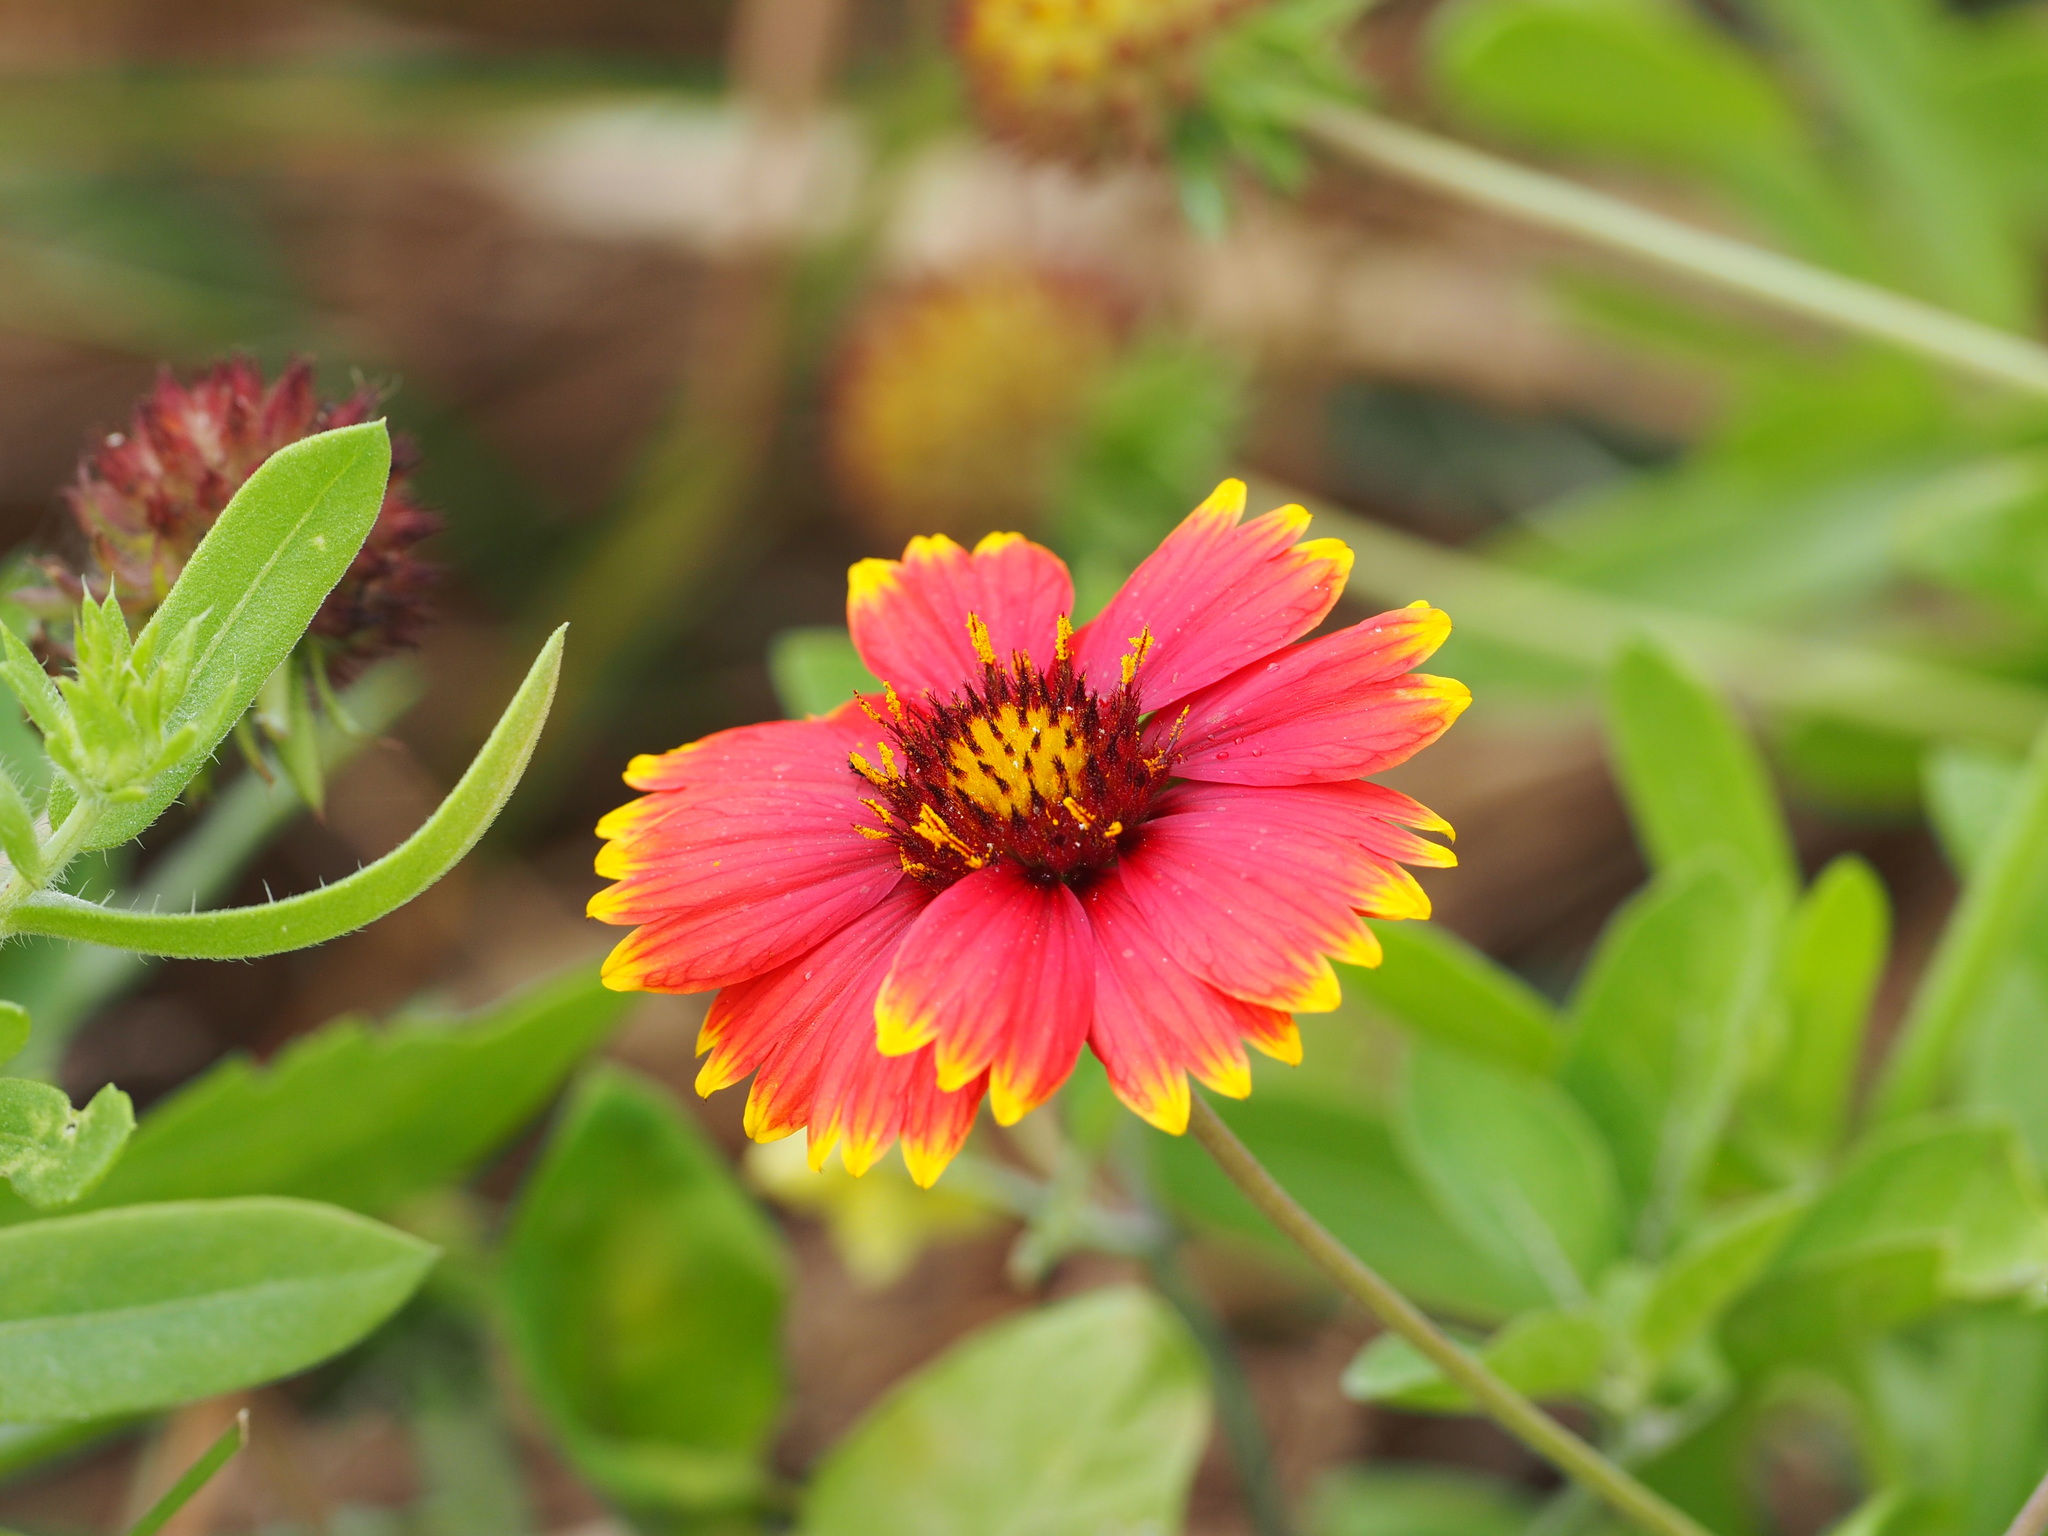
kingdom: Plantae
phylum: Tracheophyta
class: Magnoliopsida
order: Asterales
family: Asteraceae
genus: Gaillardia
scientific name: Gaillardia pulchella
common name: Firewheel
